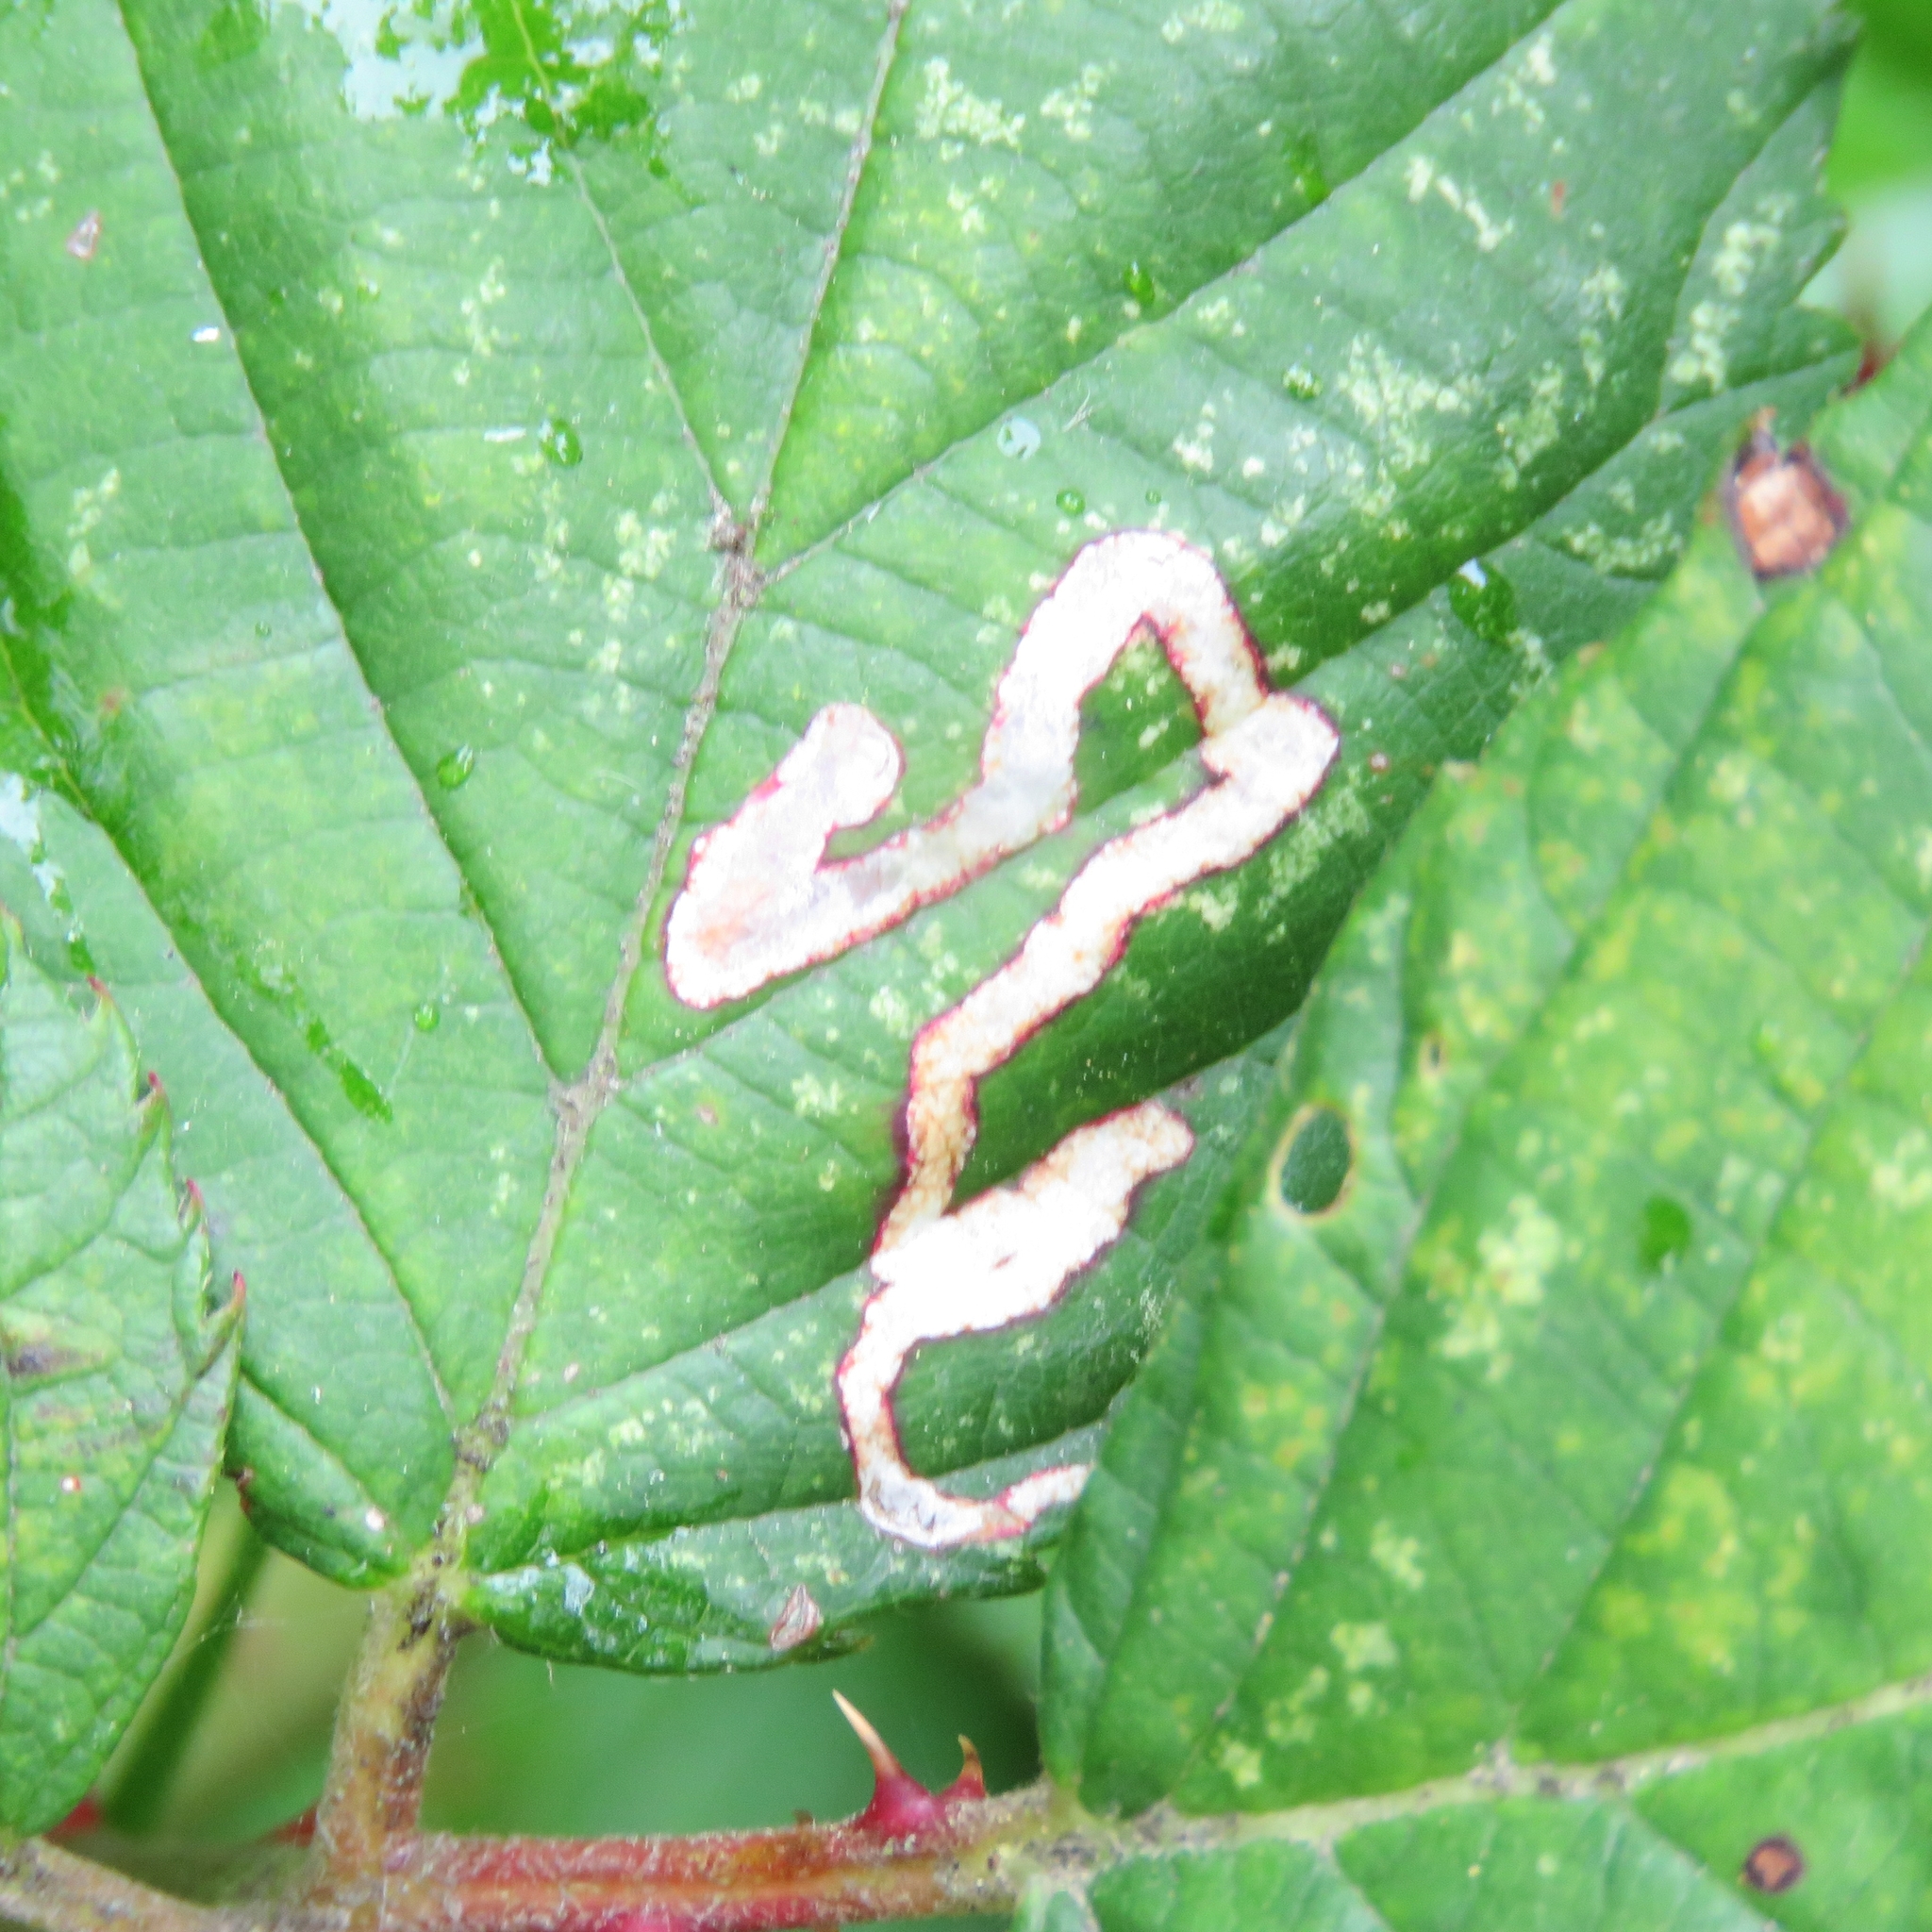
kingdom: Animalia
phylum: Arthropoda
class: Insecta
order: Lepidoptera
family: Nepticulidae
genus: Stigmella
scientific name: Stigmella aurella
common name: Golden pigmy
